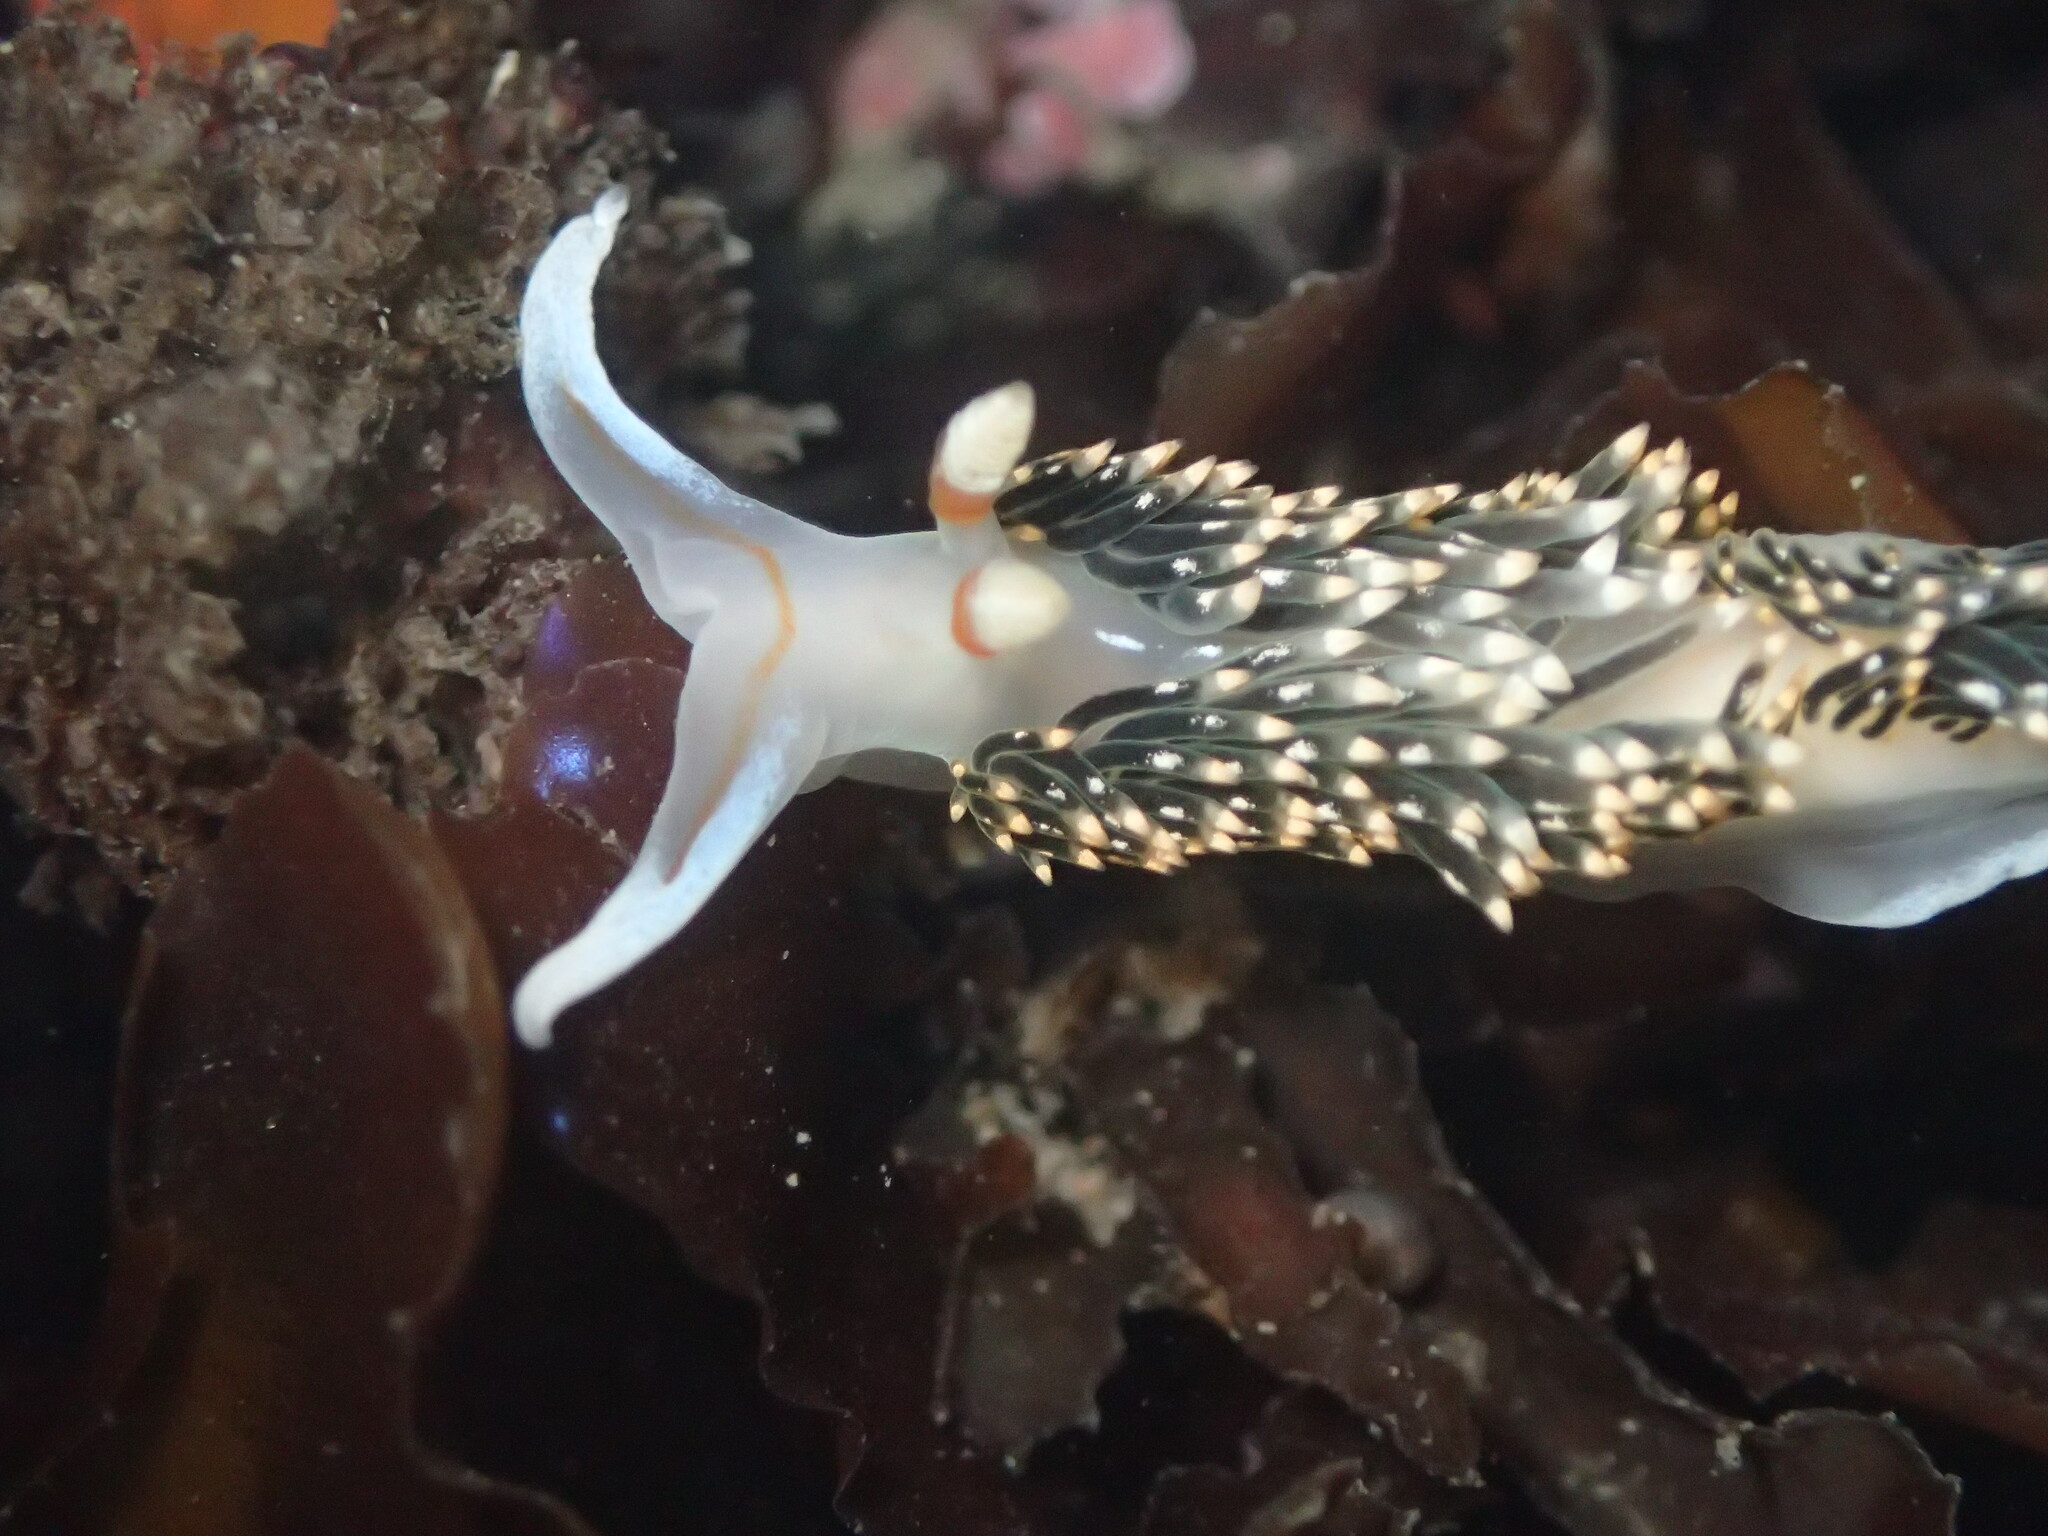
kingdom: Animalia
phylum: Mollusca
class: Gastropoda
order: Nudibranchia
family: Facelinidae
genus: Phidiana
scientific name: Phidiana hiltoni
